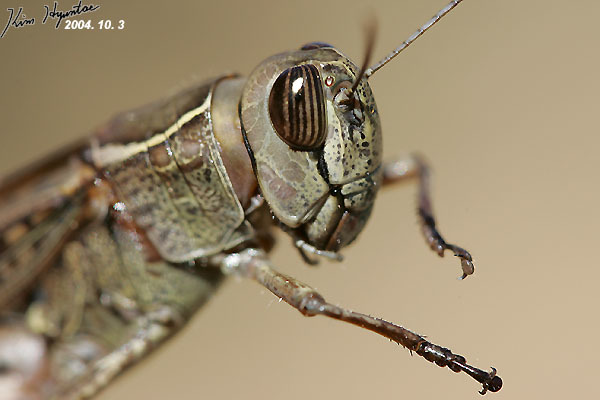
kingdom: Animalia
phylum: Arthropoda
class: Insecta
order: Orthoptera
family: Acrididae
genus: Shirakiacris
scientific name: Shirakiacris shirakii
